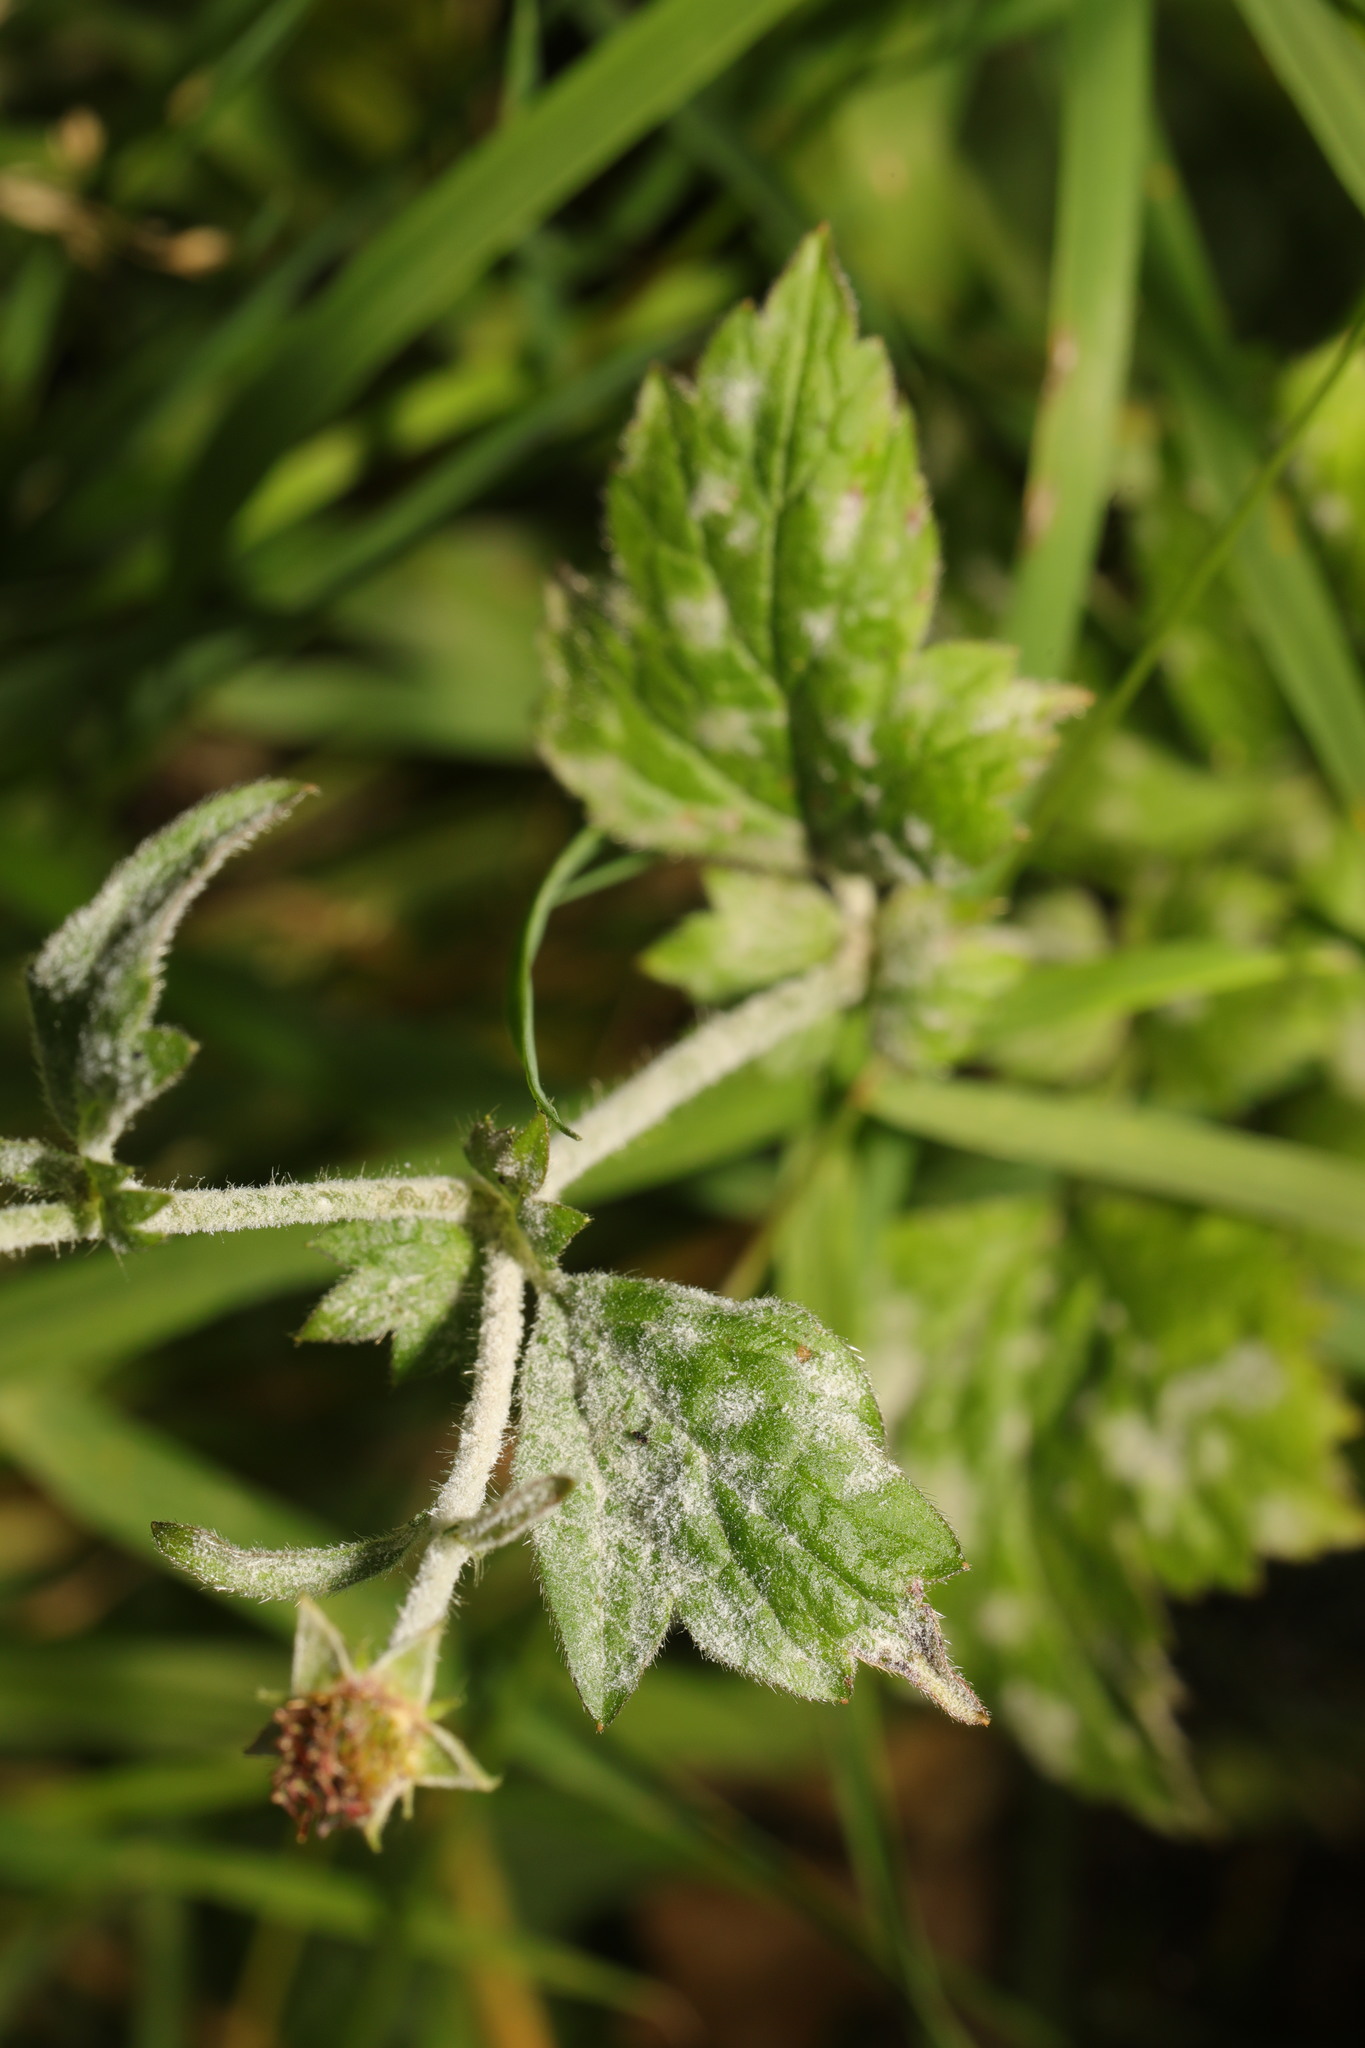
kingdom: Fungi
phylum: Ascomycota
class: Leotiomycetes
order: Helotiales
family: Erysiphaceae
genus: Podosphaera
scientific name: Podosphaera aphanis
